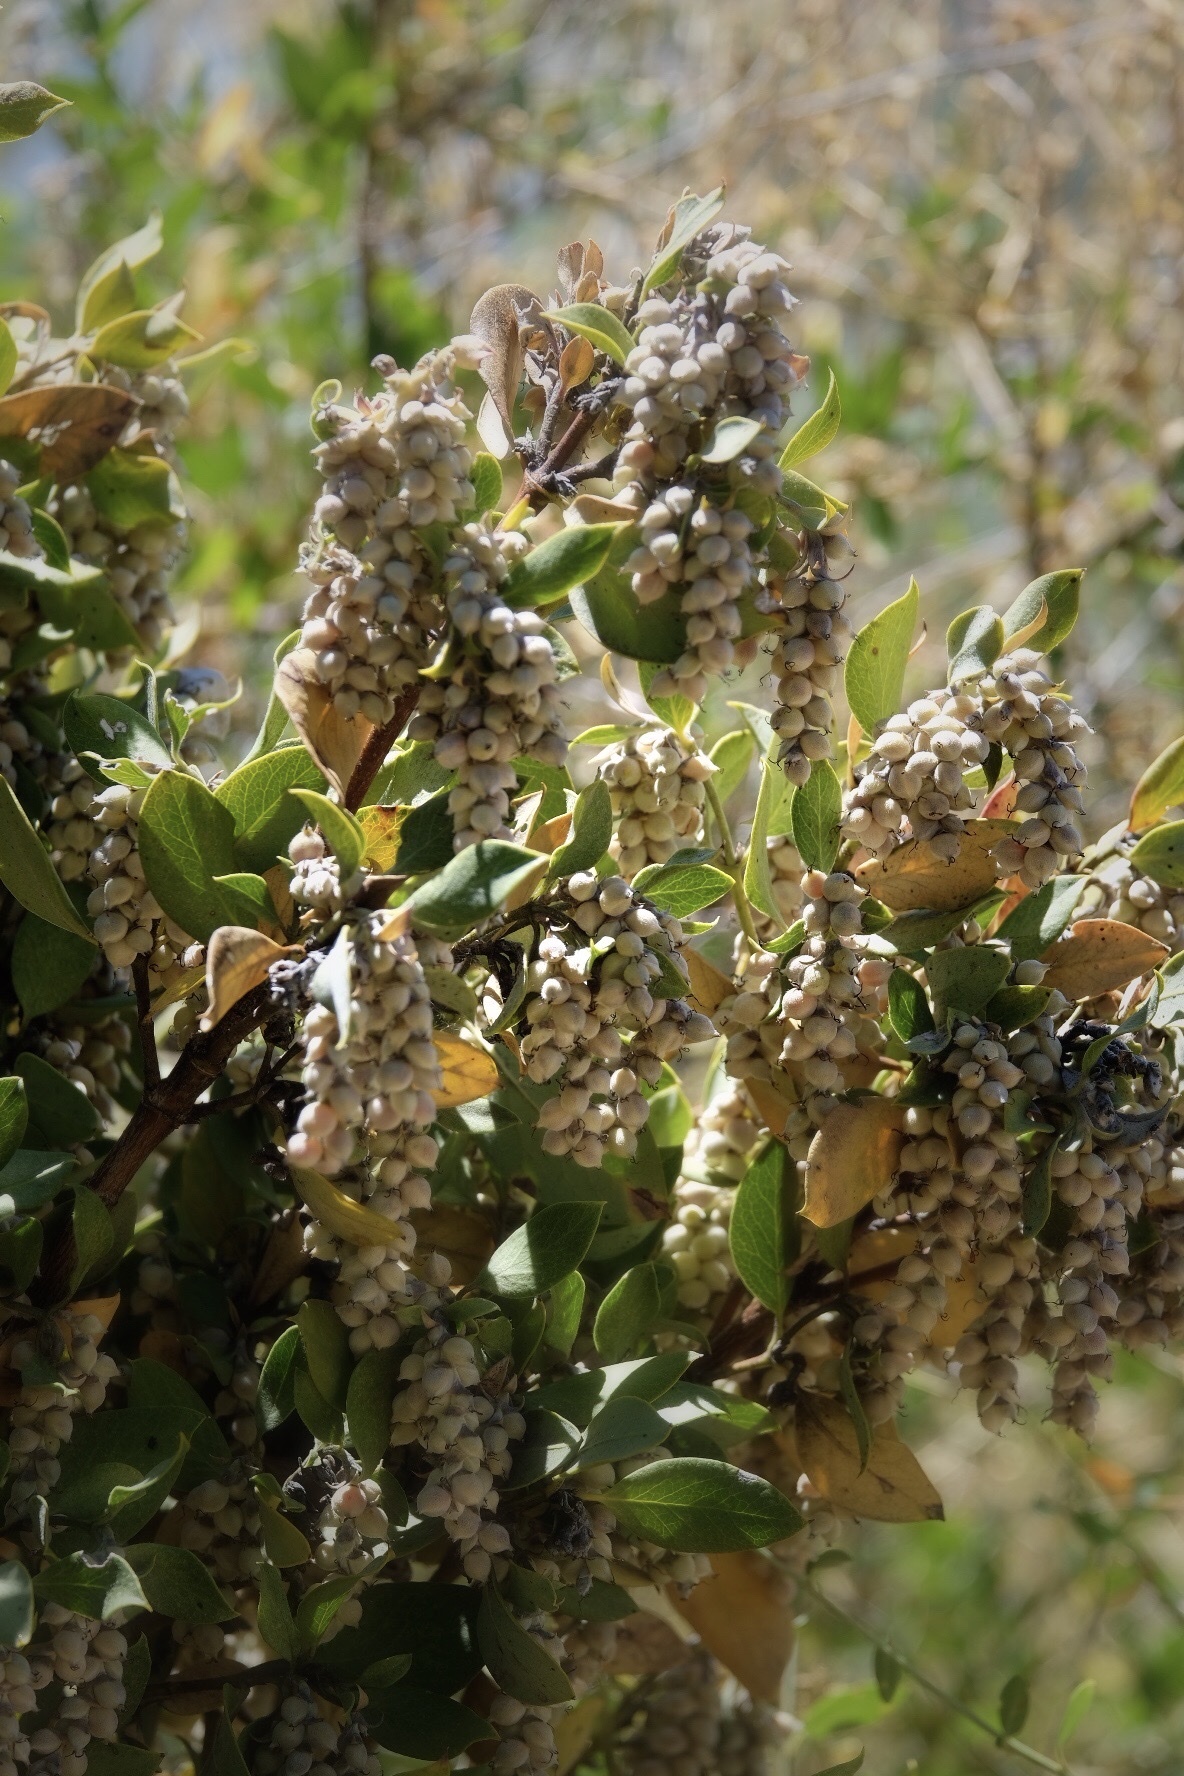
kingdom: Plantae
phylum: Tracheophyta
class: Magnoliopsida
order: Garryales
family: Garryaceae
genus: Garrya
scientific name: Garrya flavescens
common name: Ashy silk-tassel
